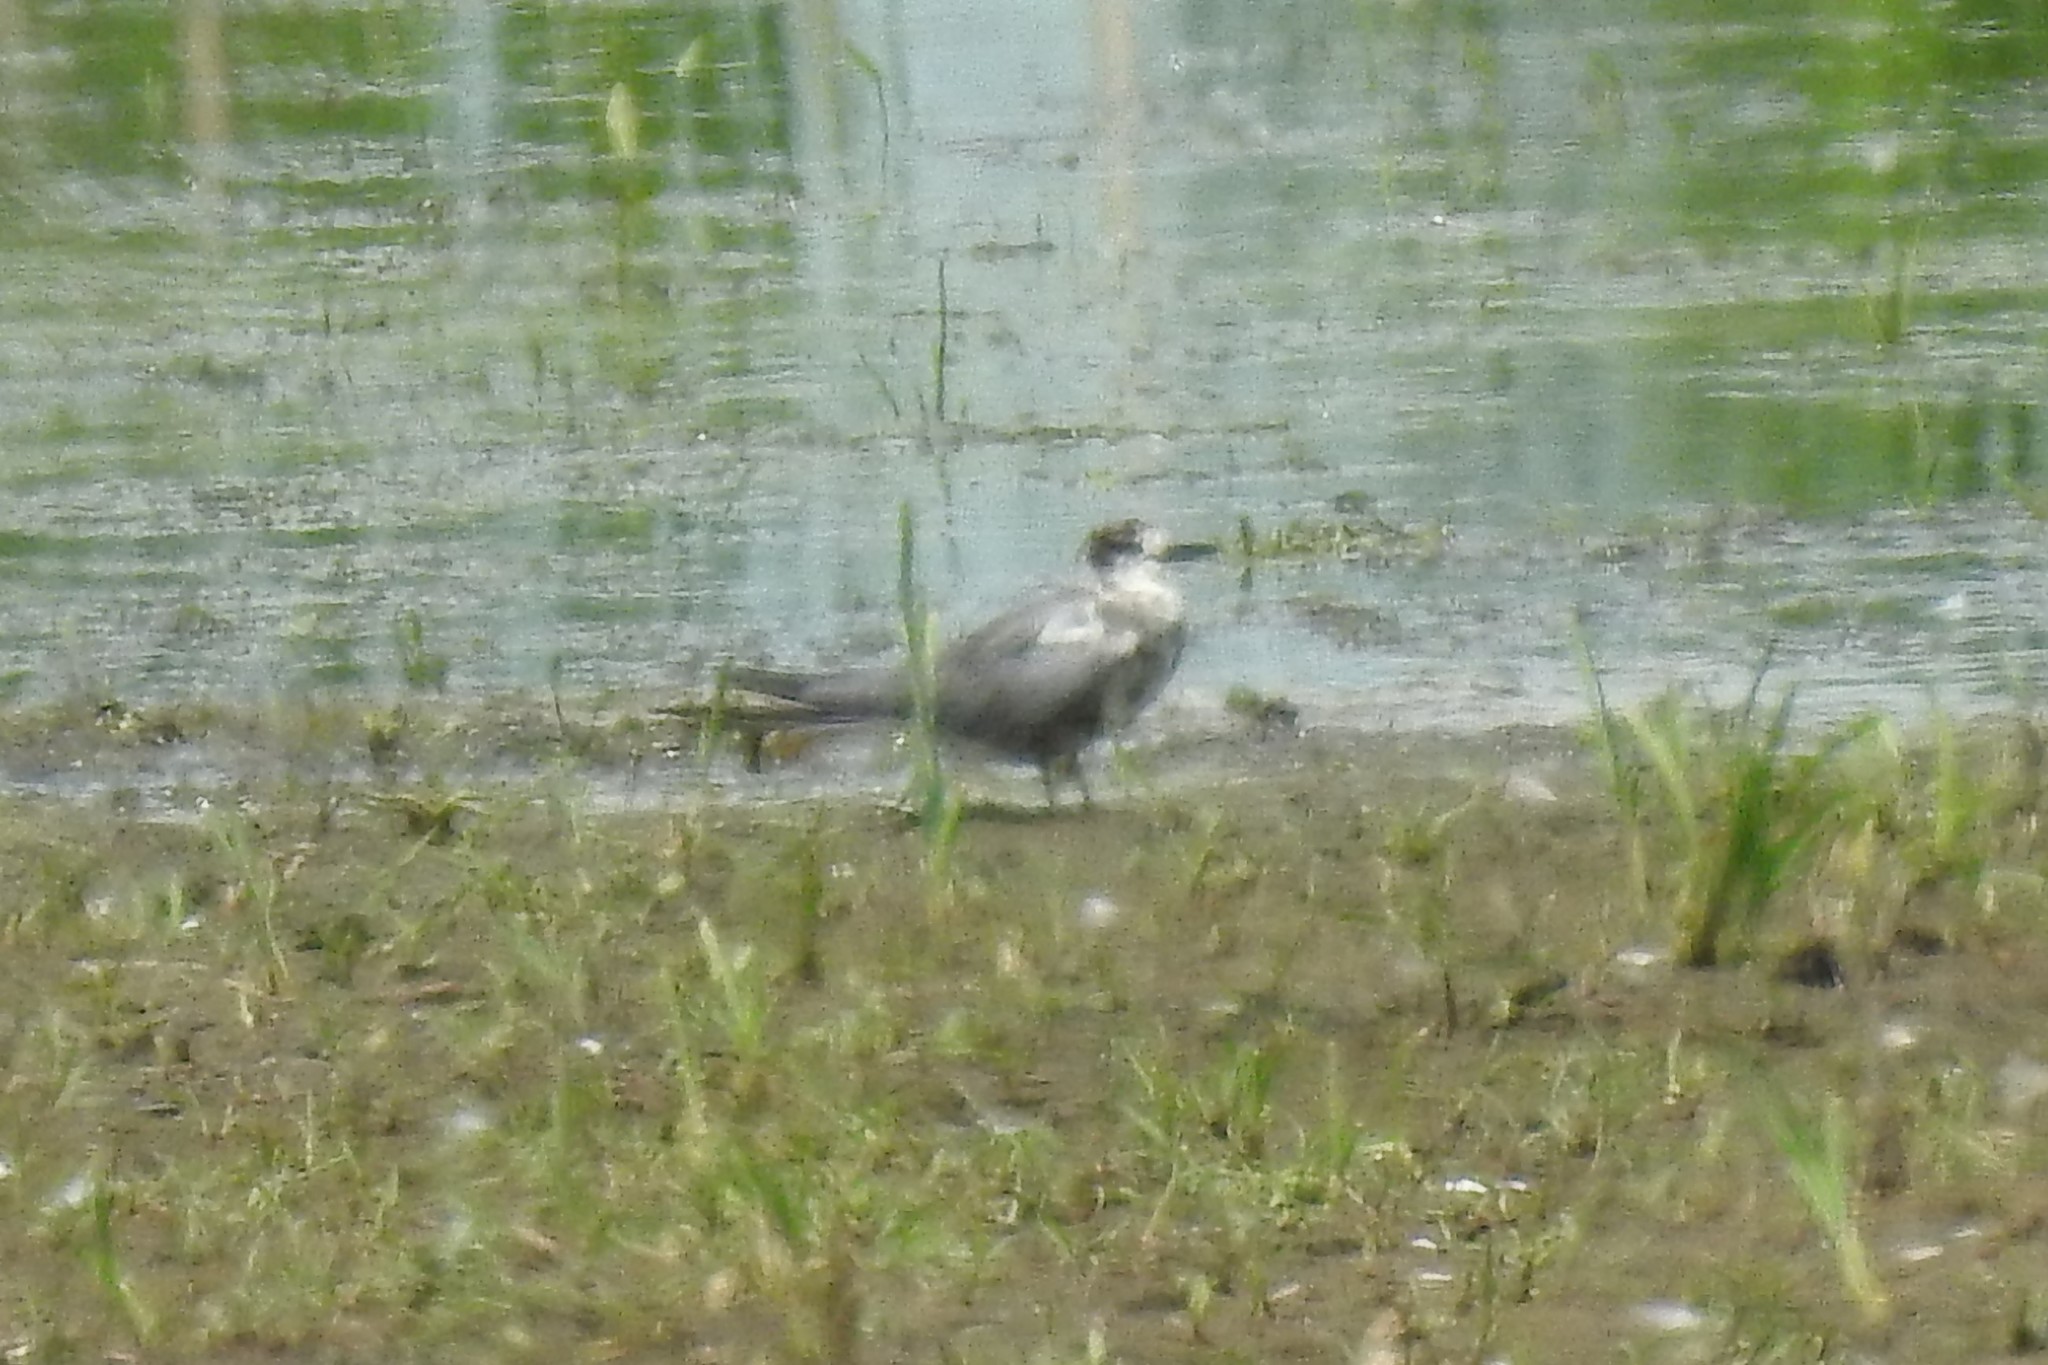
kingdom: Animalia
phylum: Chordata
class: Aves
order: Charadriiformes
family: Laridae
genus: Chlidonias
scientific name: Chlidonias niger
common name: Black tern
